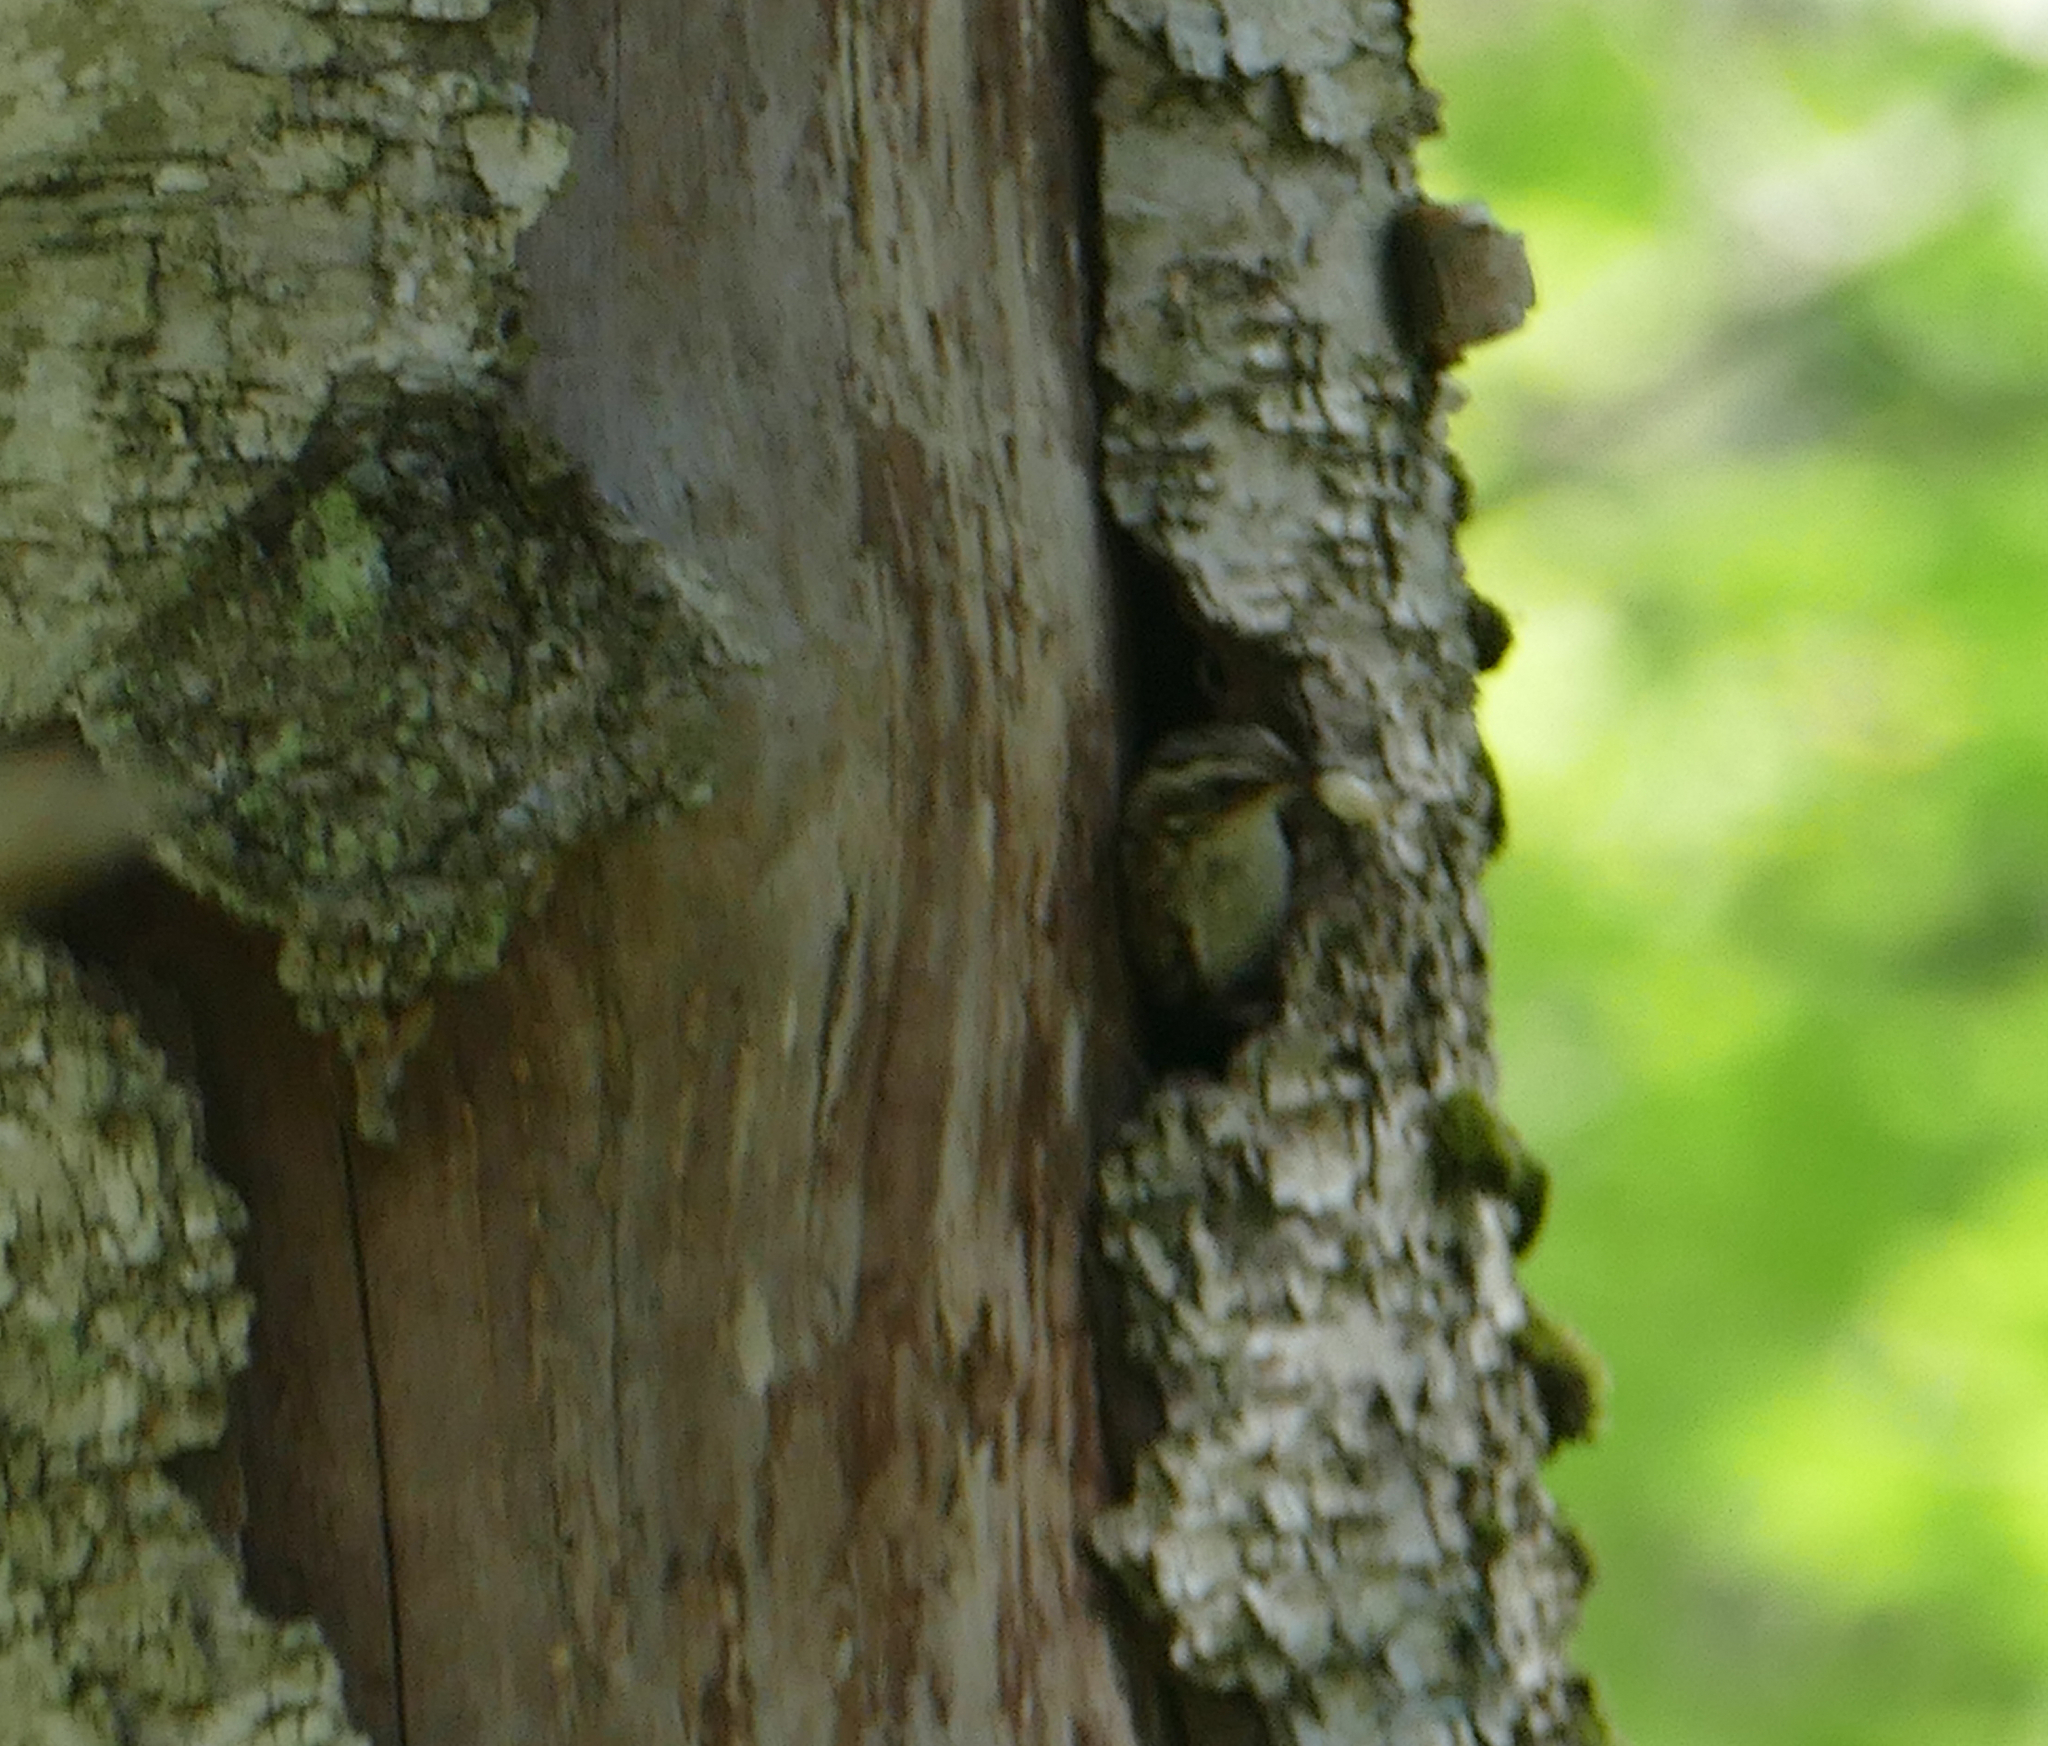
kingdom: Animalia
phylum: Chordata
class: Aves
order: Passeriformes
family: Certhiidae
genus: Certhia
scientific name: Certhia americana
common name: Brown creeper
